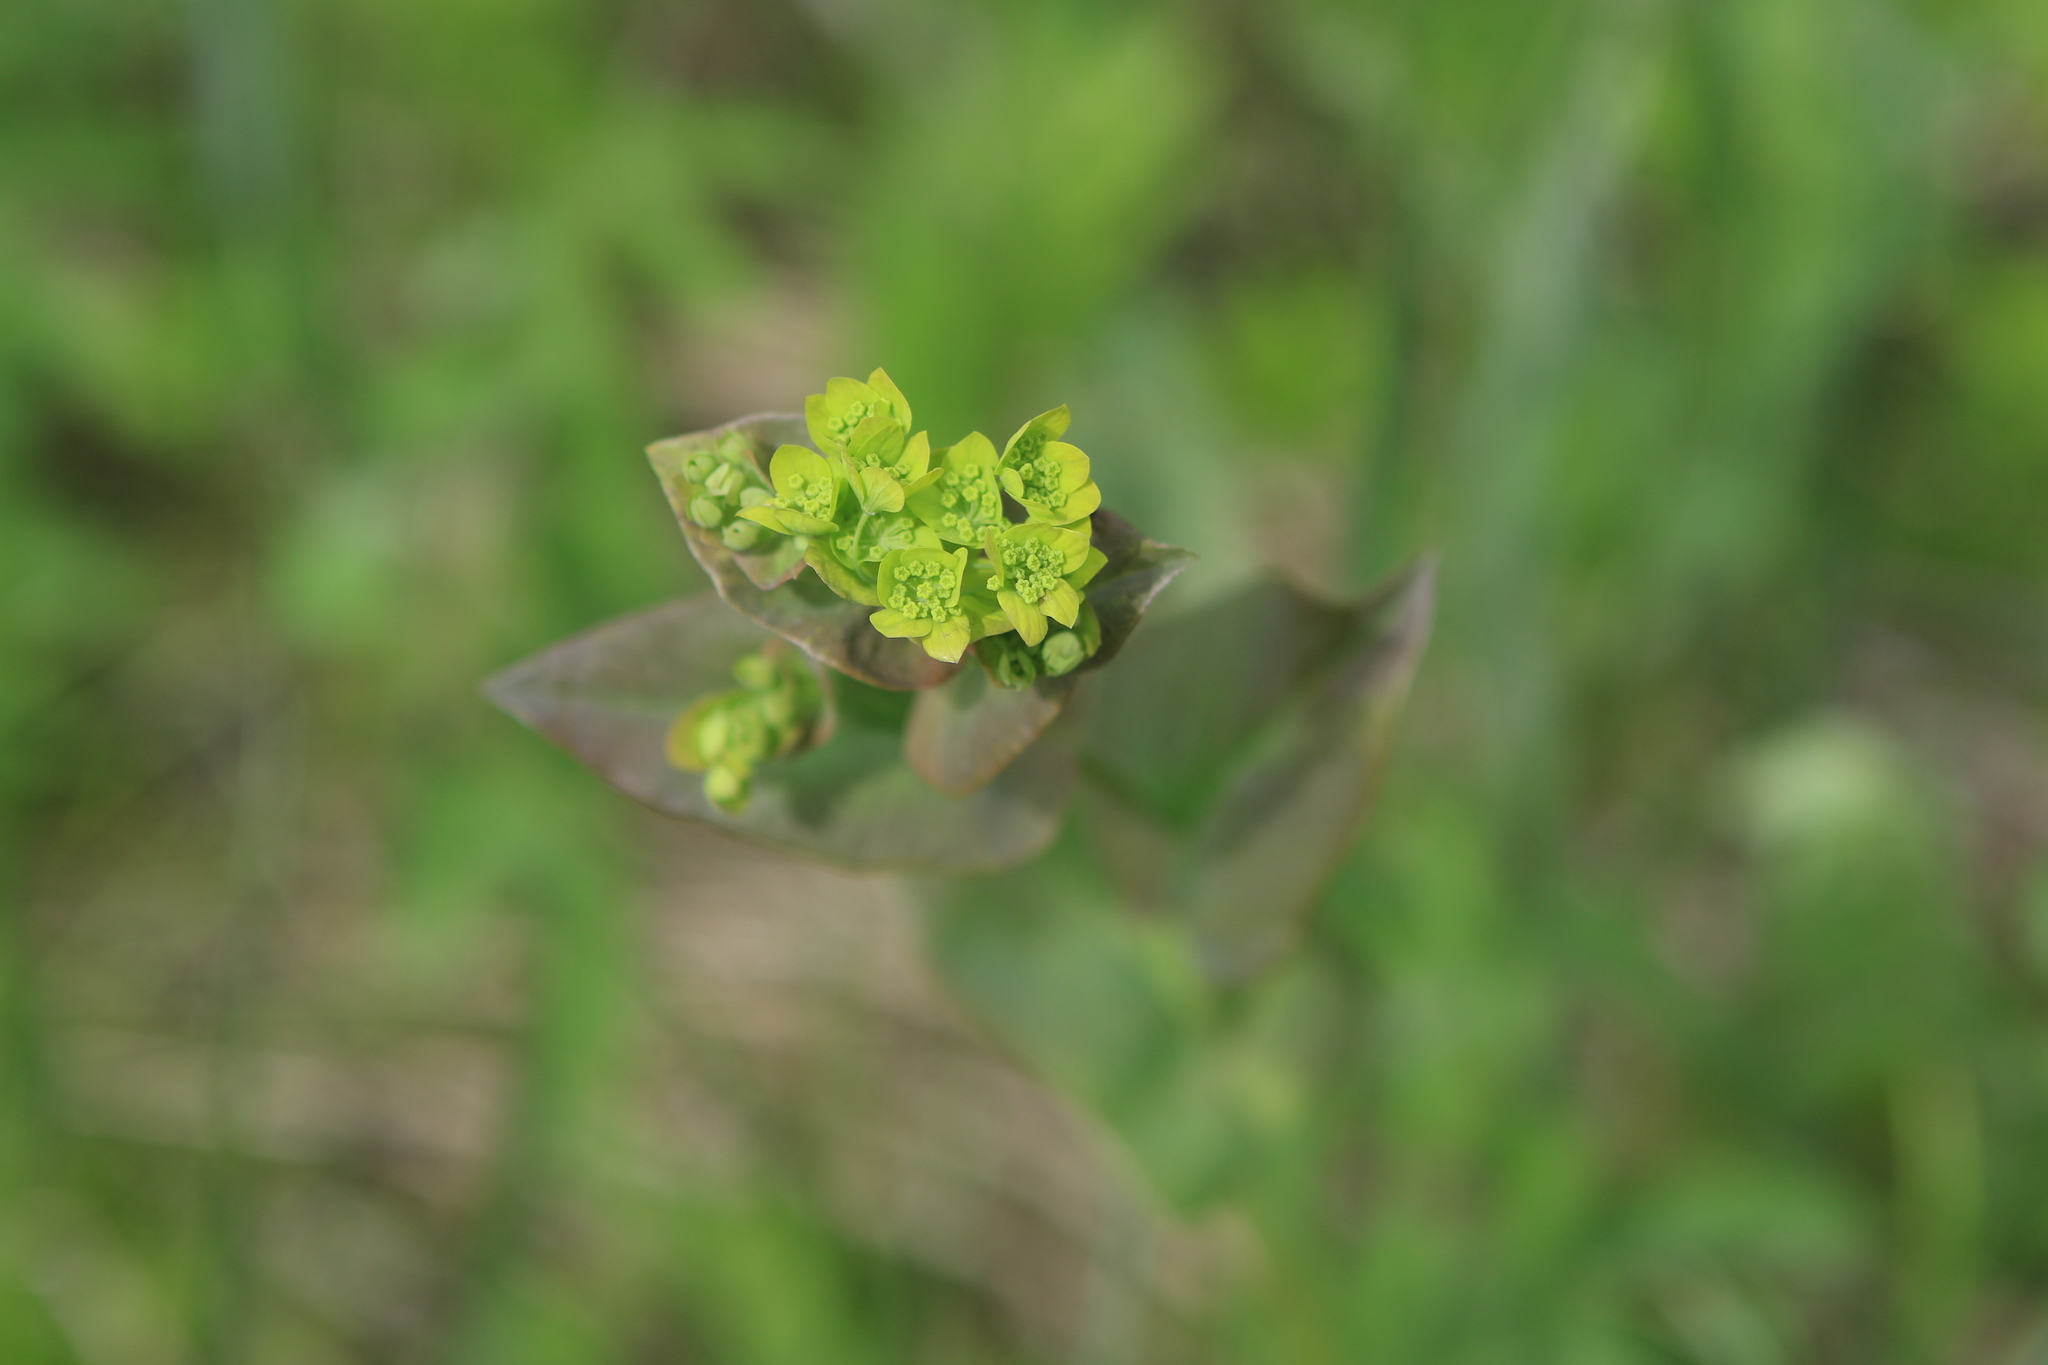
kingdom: Plantae
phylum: Tracheophyta
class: Magnoliopsida
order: Apiales
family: Apiaceae
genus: Bupleurum
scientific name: Bupleurum aureum
